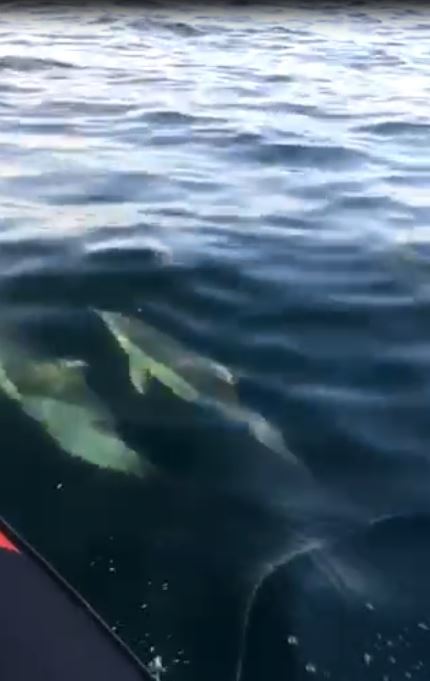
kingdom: Animalia
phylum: Chordata
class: Mammalia
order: Cetacea
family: Delphinidae
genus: Delphinus
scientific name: Delphinus delphis
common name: Common dolphin
